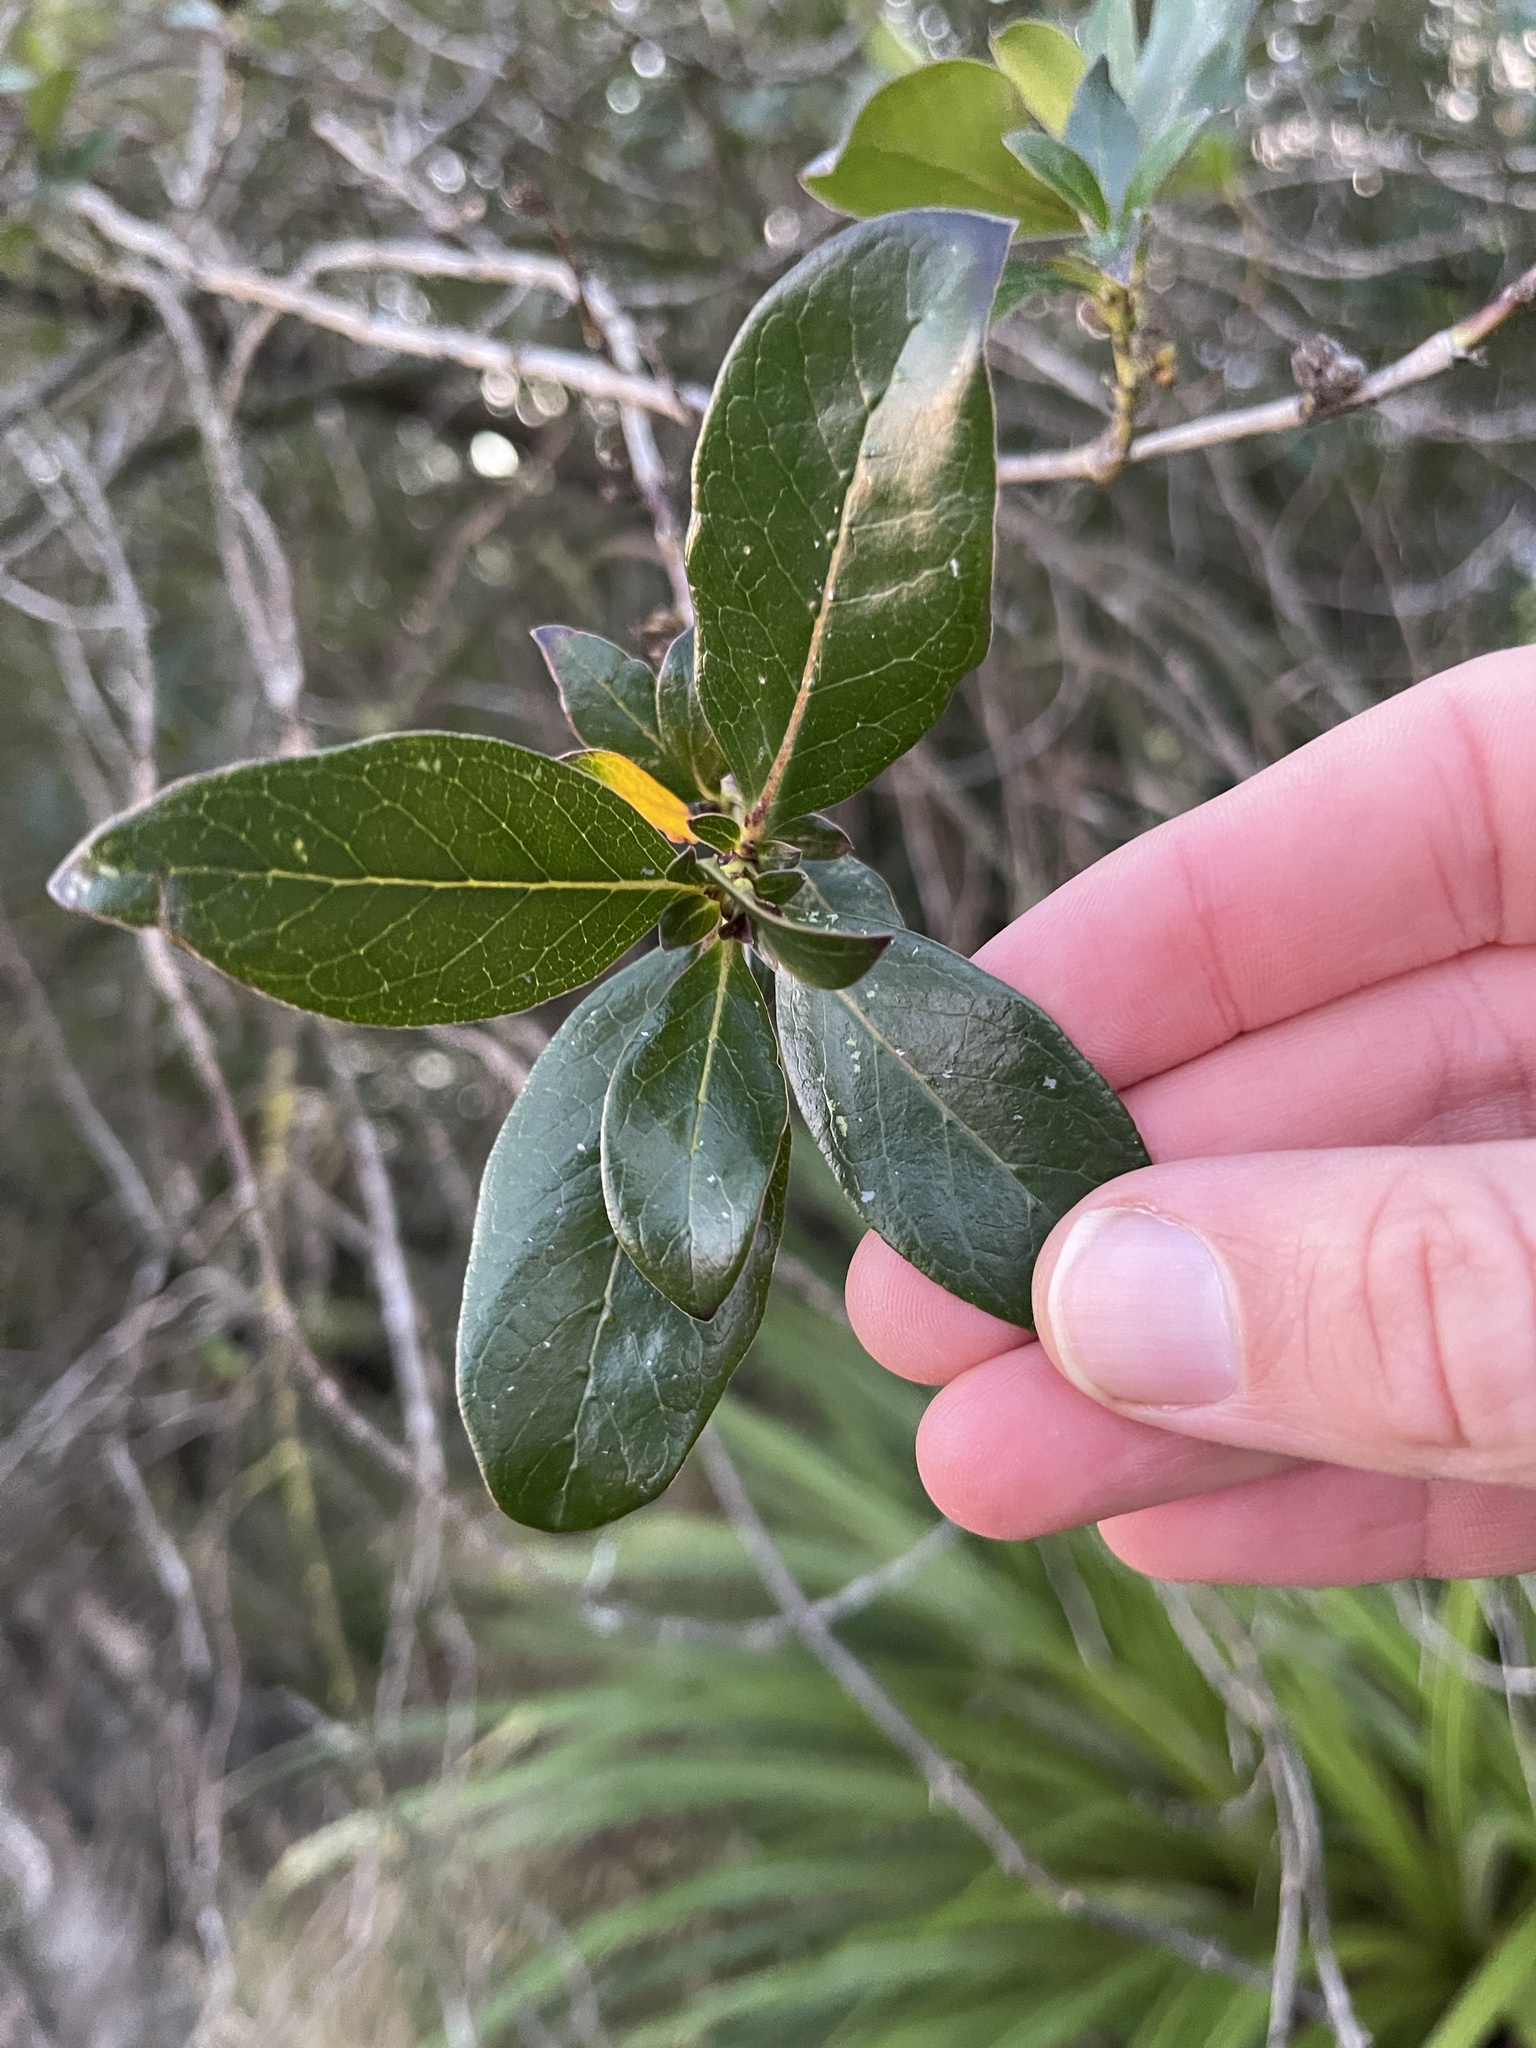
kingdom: Plantae
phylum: Tracheophyta
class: Magnoliopsida
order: Gentianales
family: Rubiaceae
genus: Coprosma
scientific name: Coprosma robusta
